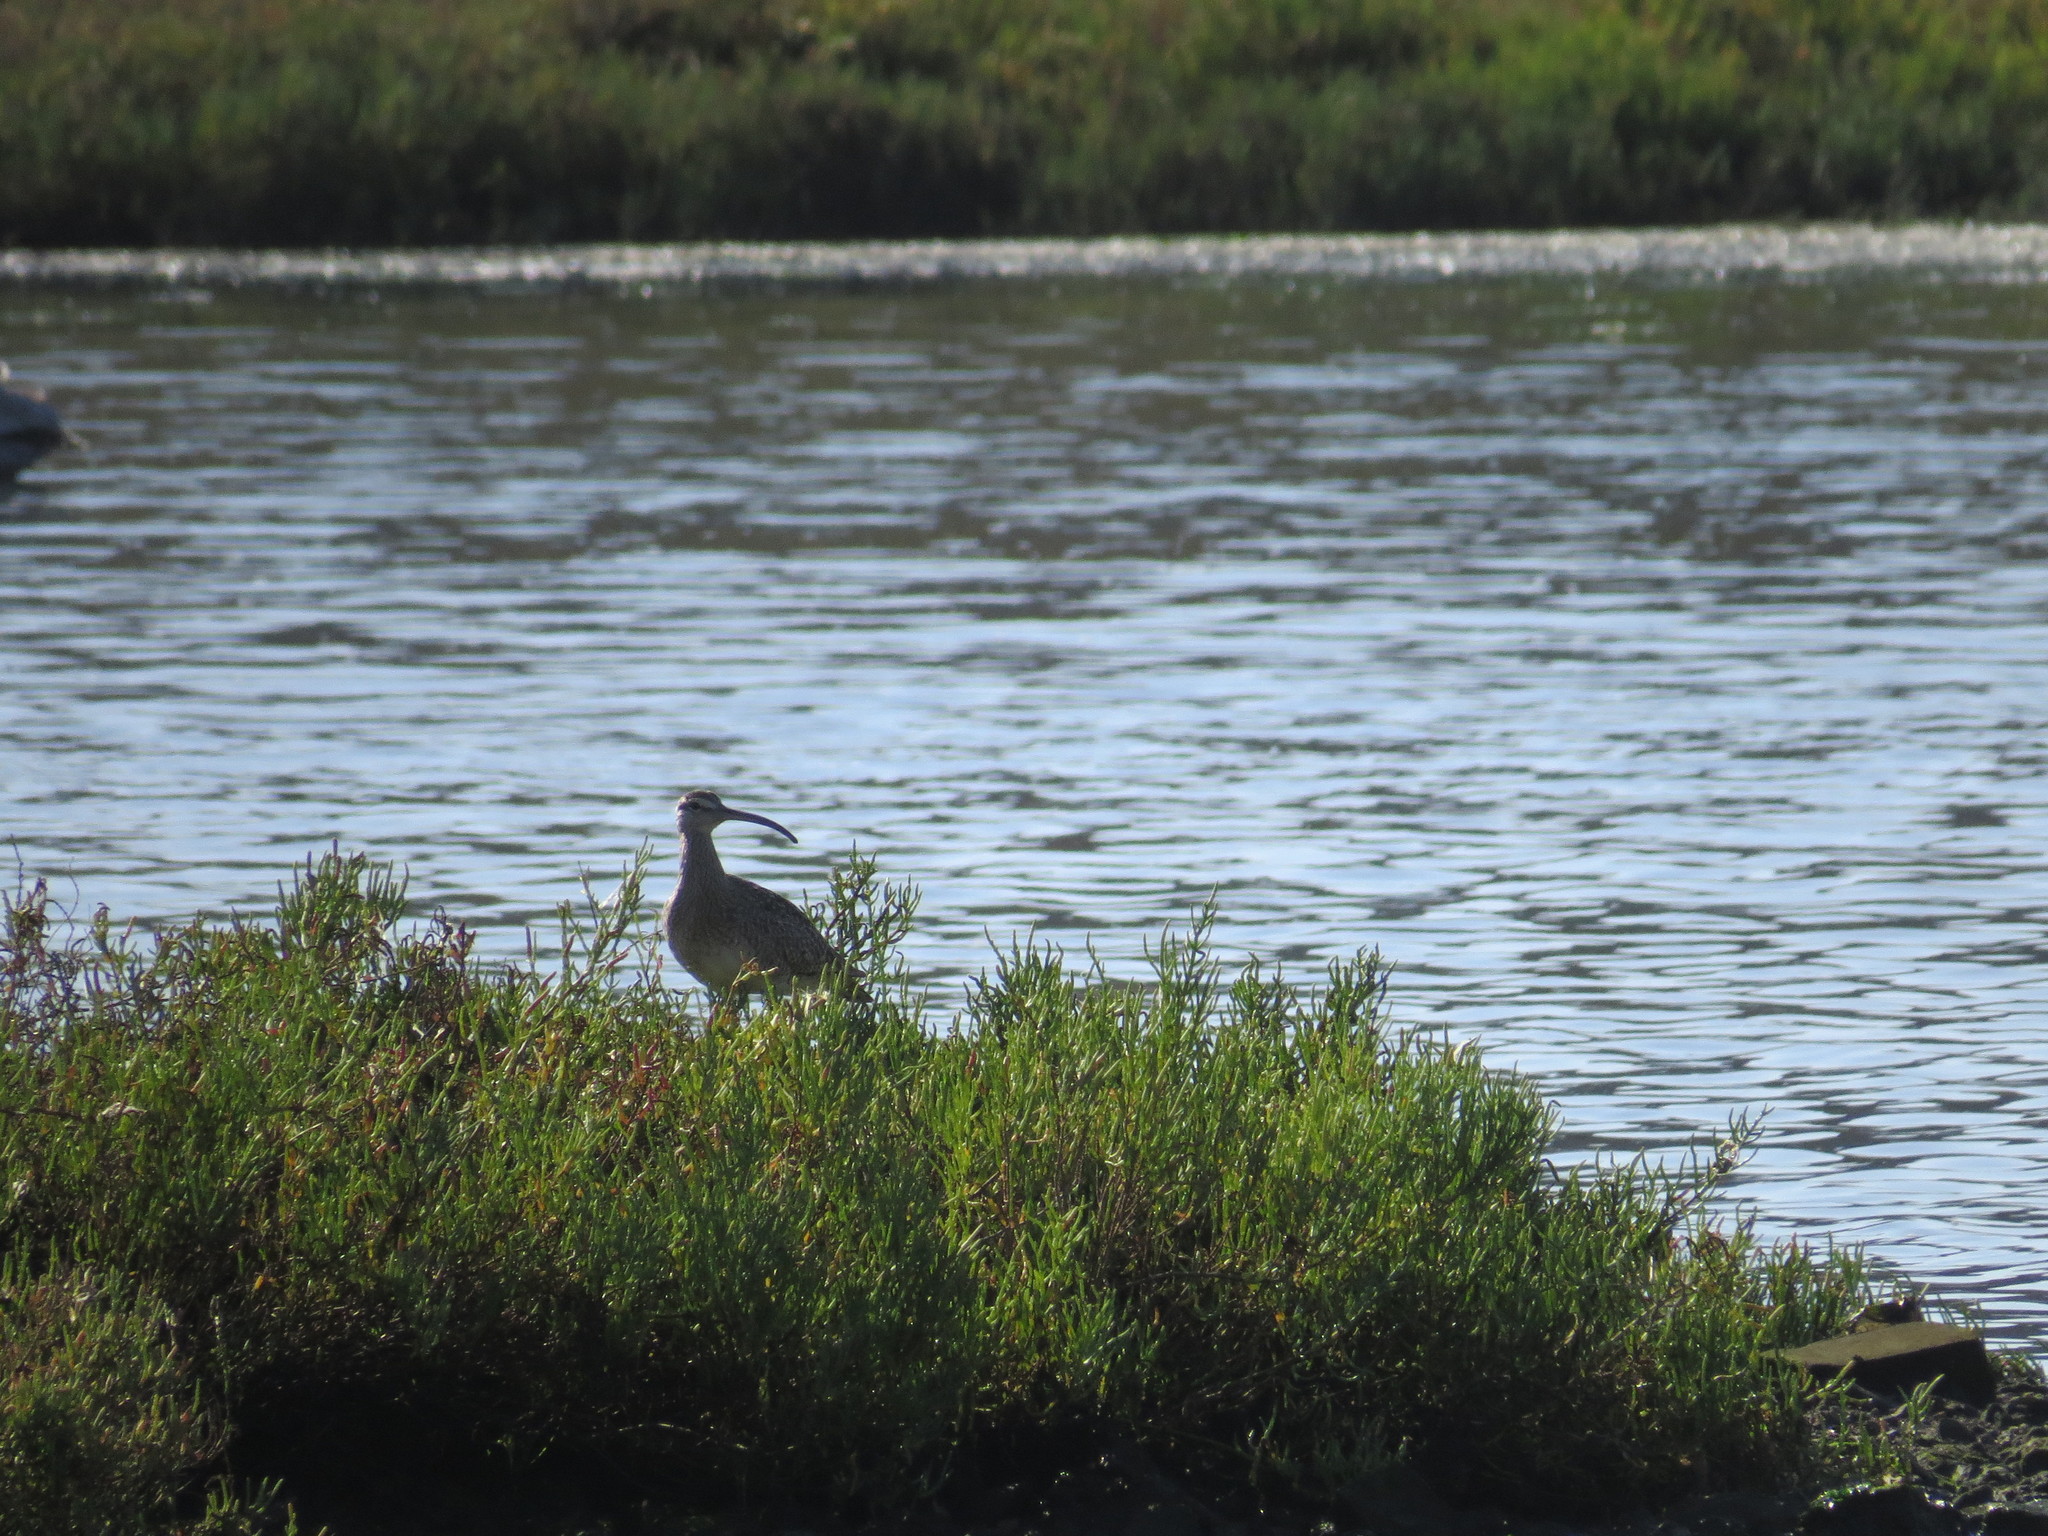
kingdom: Animalia
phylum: Chordata
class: Aves
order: Charadriiformes
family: Scolopacidae
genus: Numenius
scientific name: Numenius phaeopus
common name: Whimbrel
